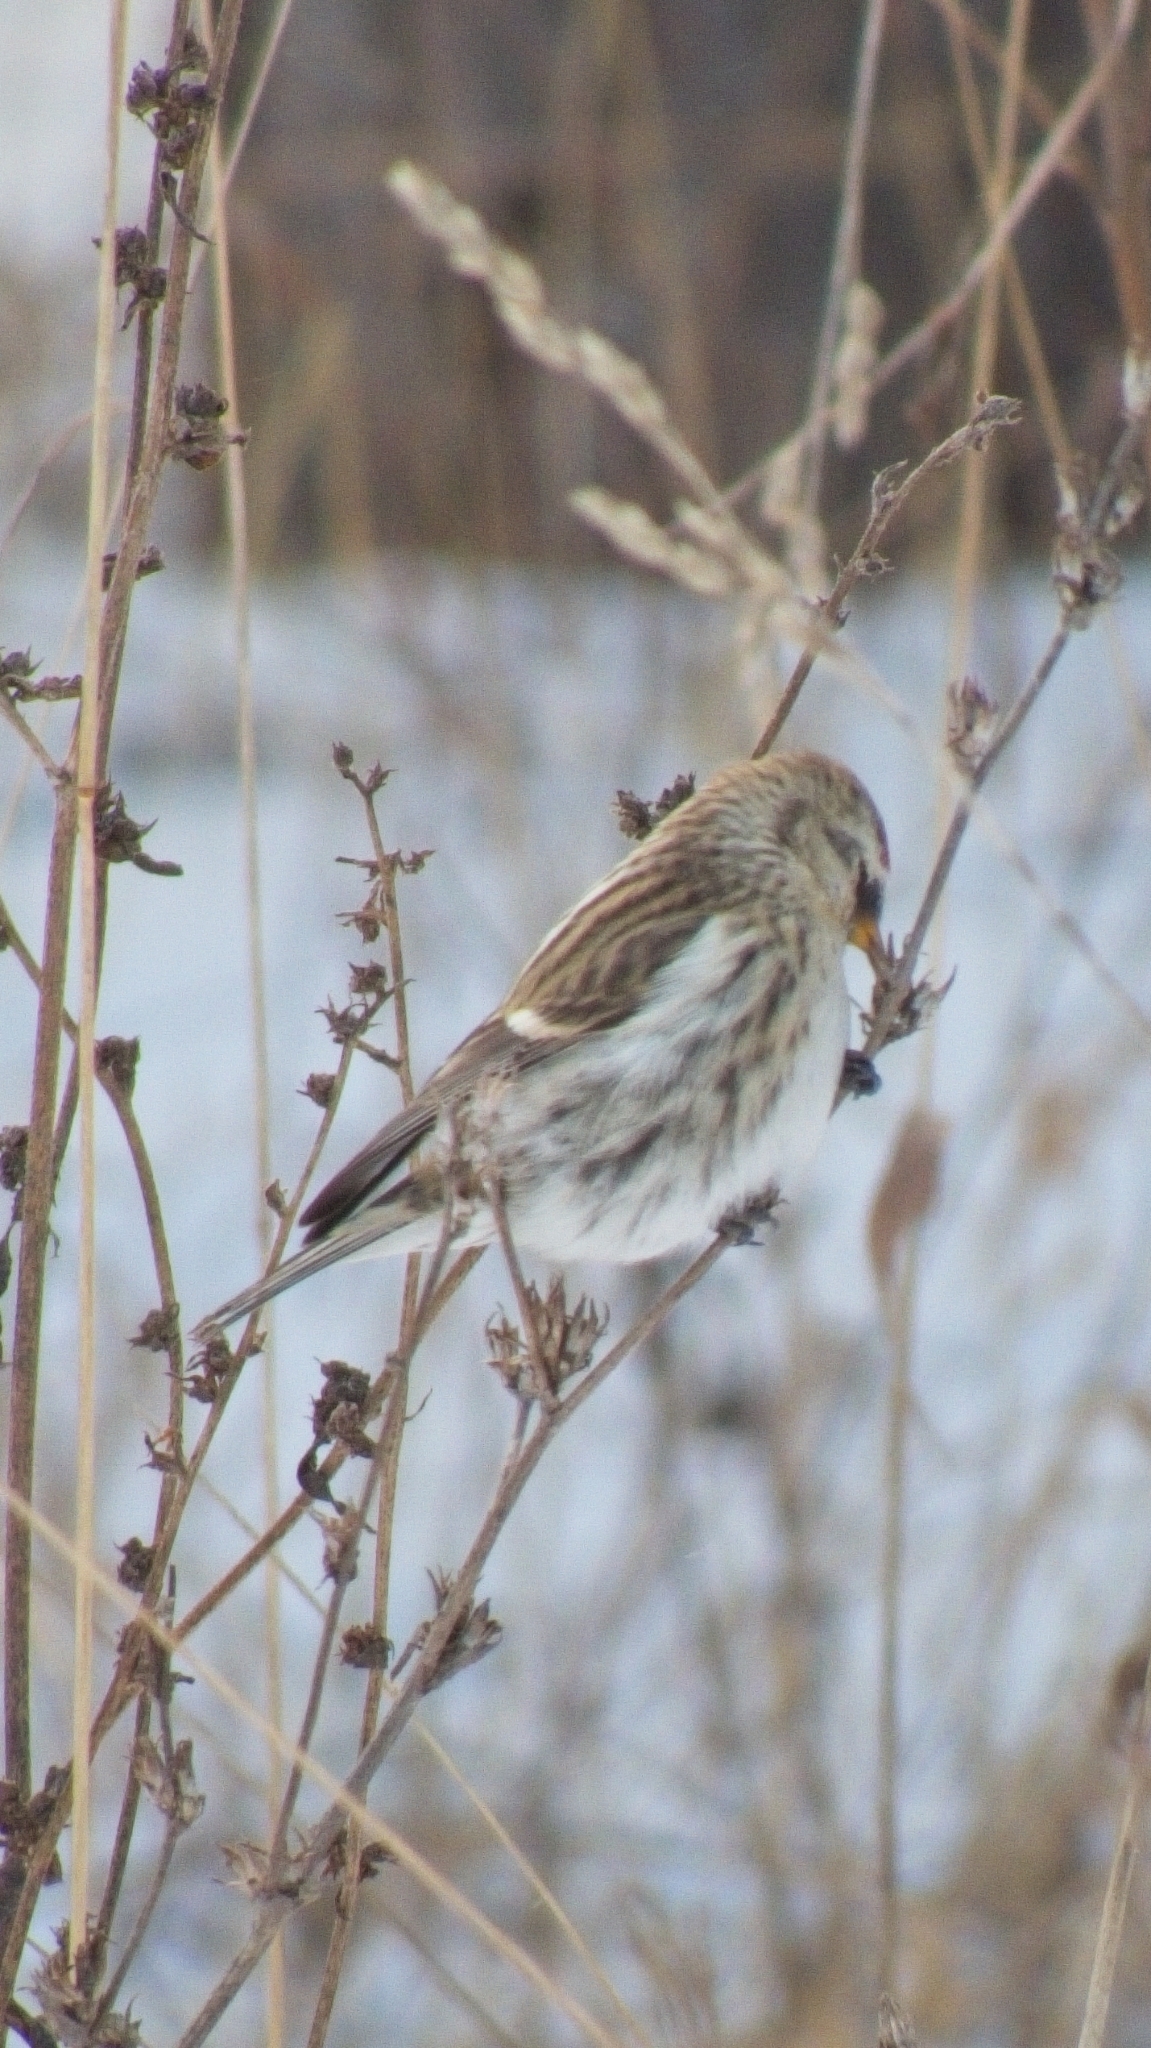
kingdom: Animalia
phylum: Chordata
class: Aves
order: Passeriformes
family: Fringillidae
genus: Acanthis
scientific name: Acanthis flammea
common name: Common redpoll
